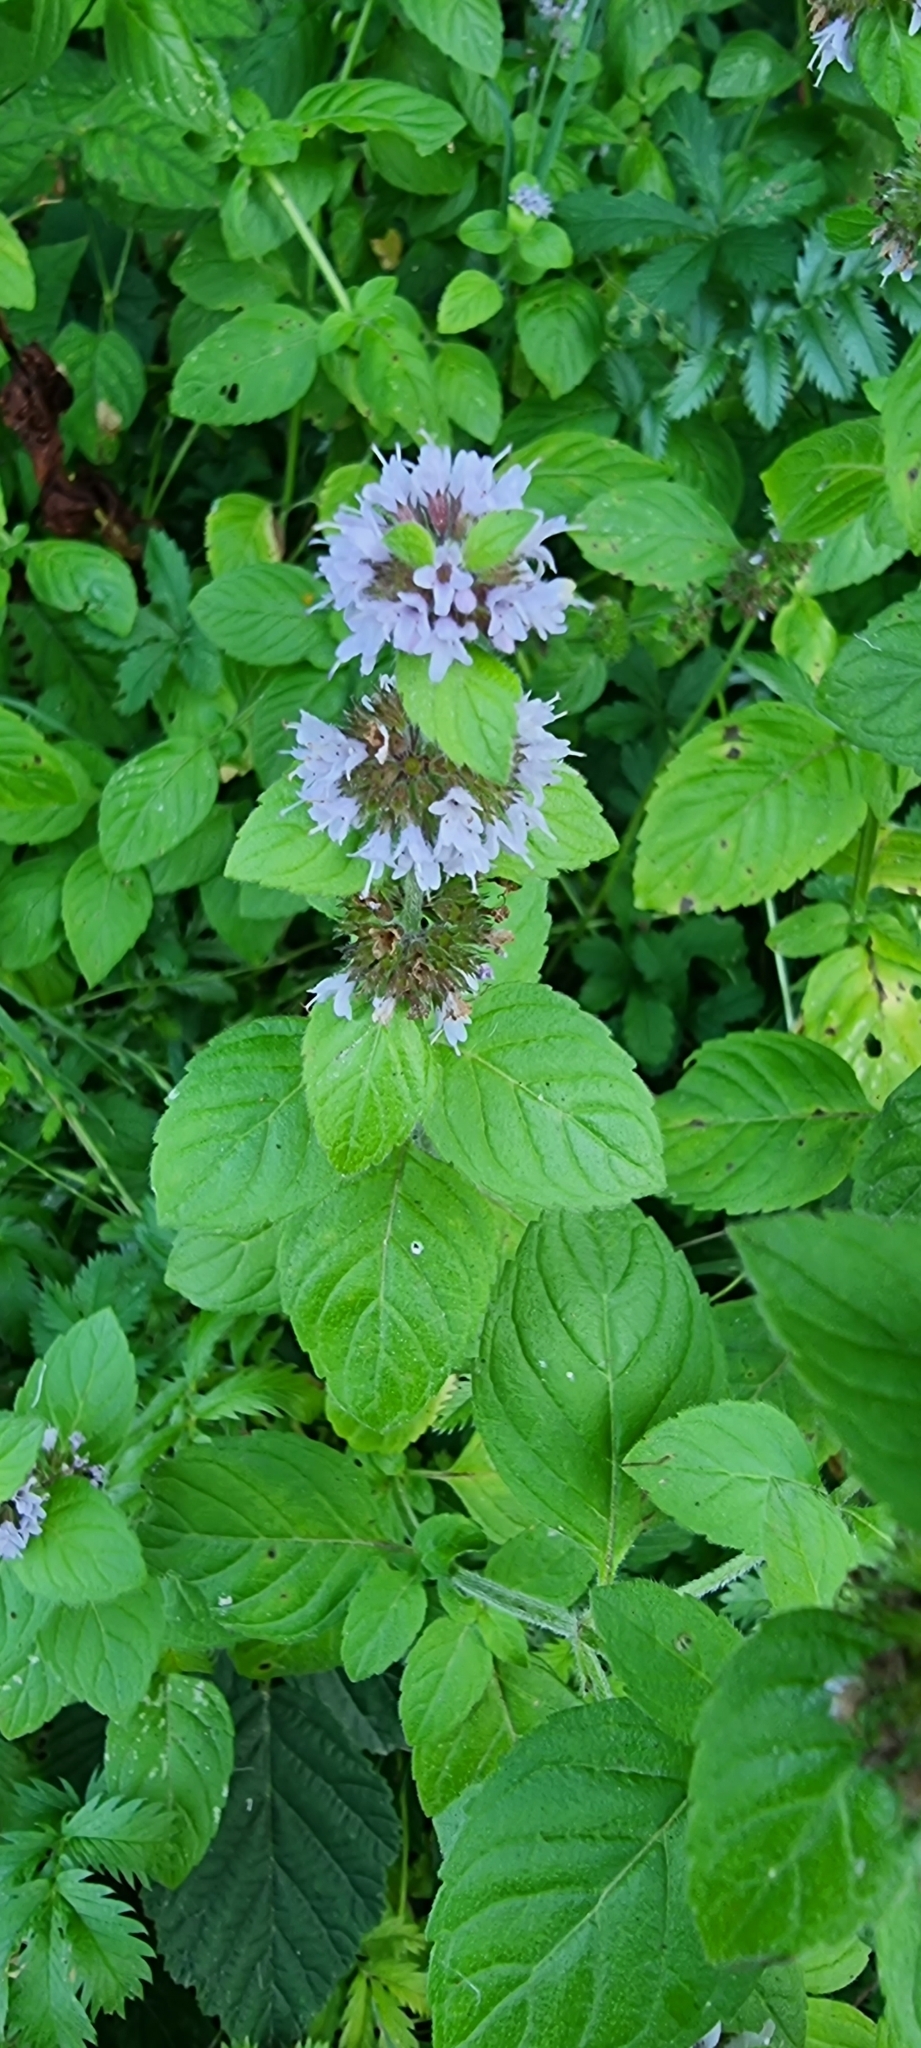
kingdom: Plantae
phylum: Tracheophyta
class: Magnoliopsida
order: Lamiales
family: Lamiaceae
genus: Mentha
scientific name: Mentha aquatica
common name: Water mint
